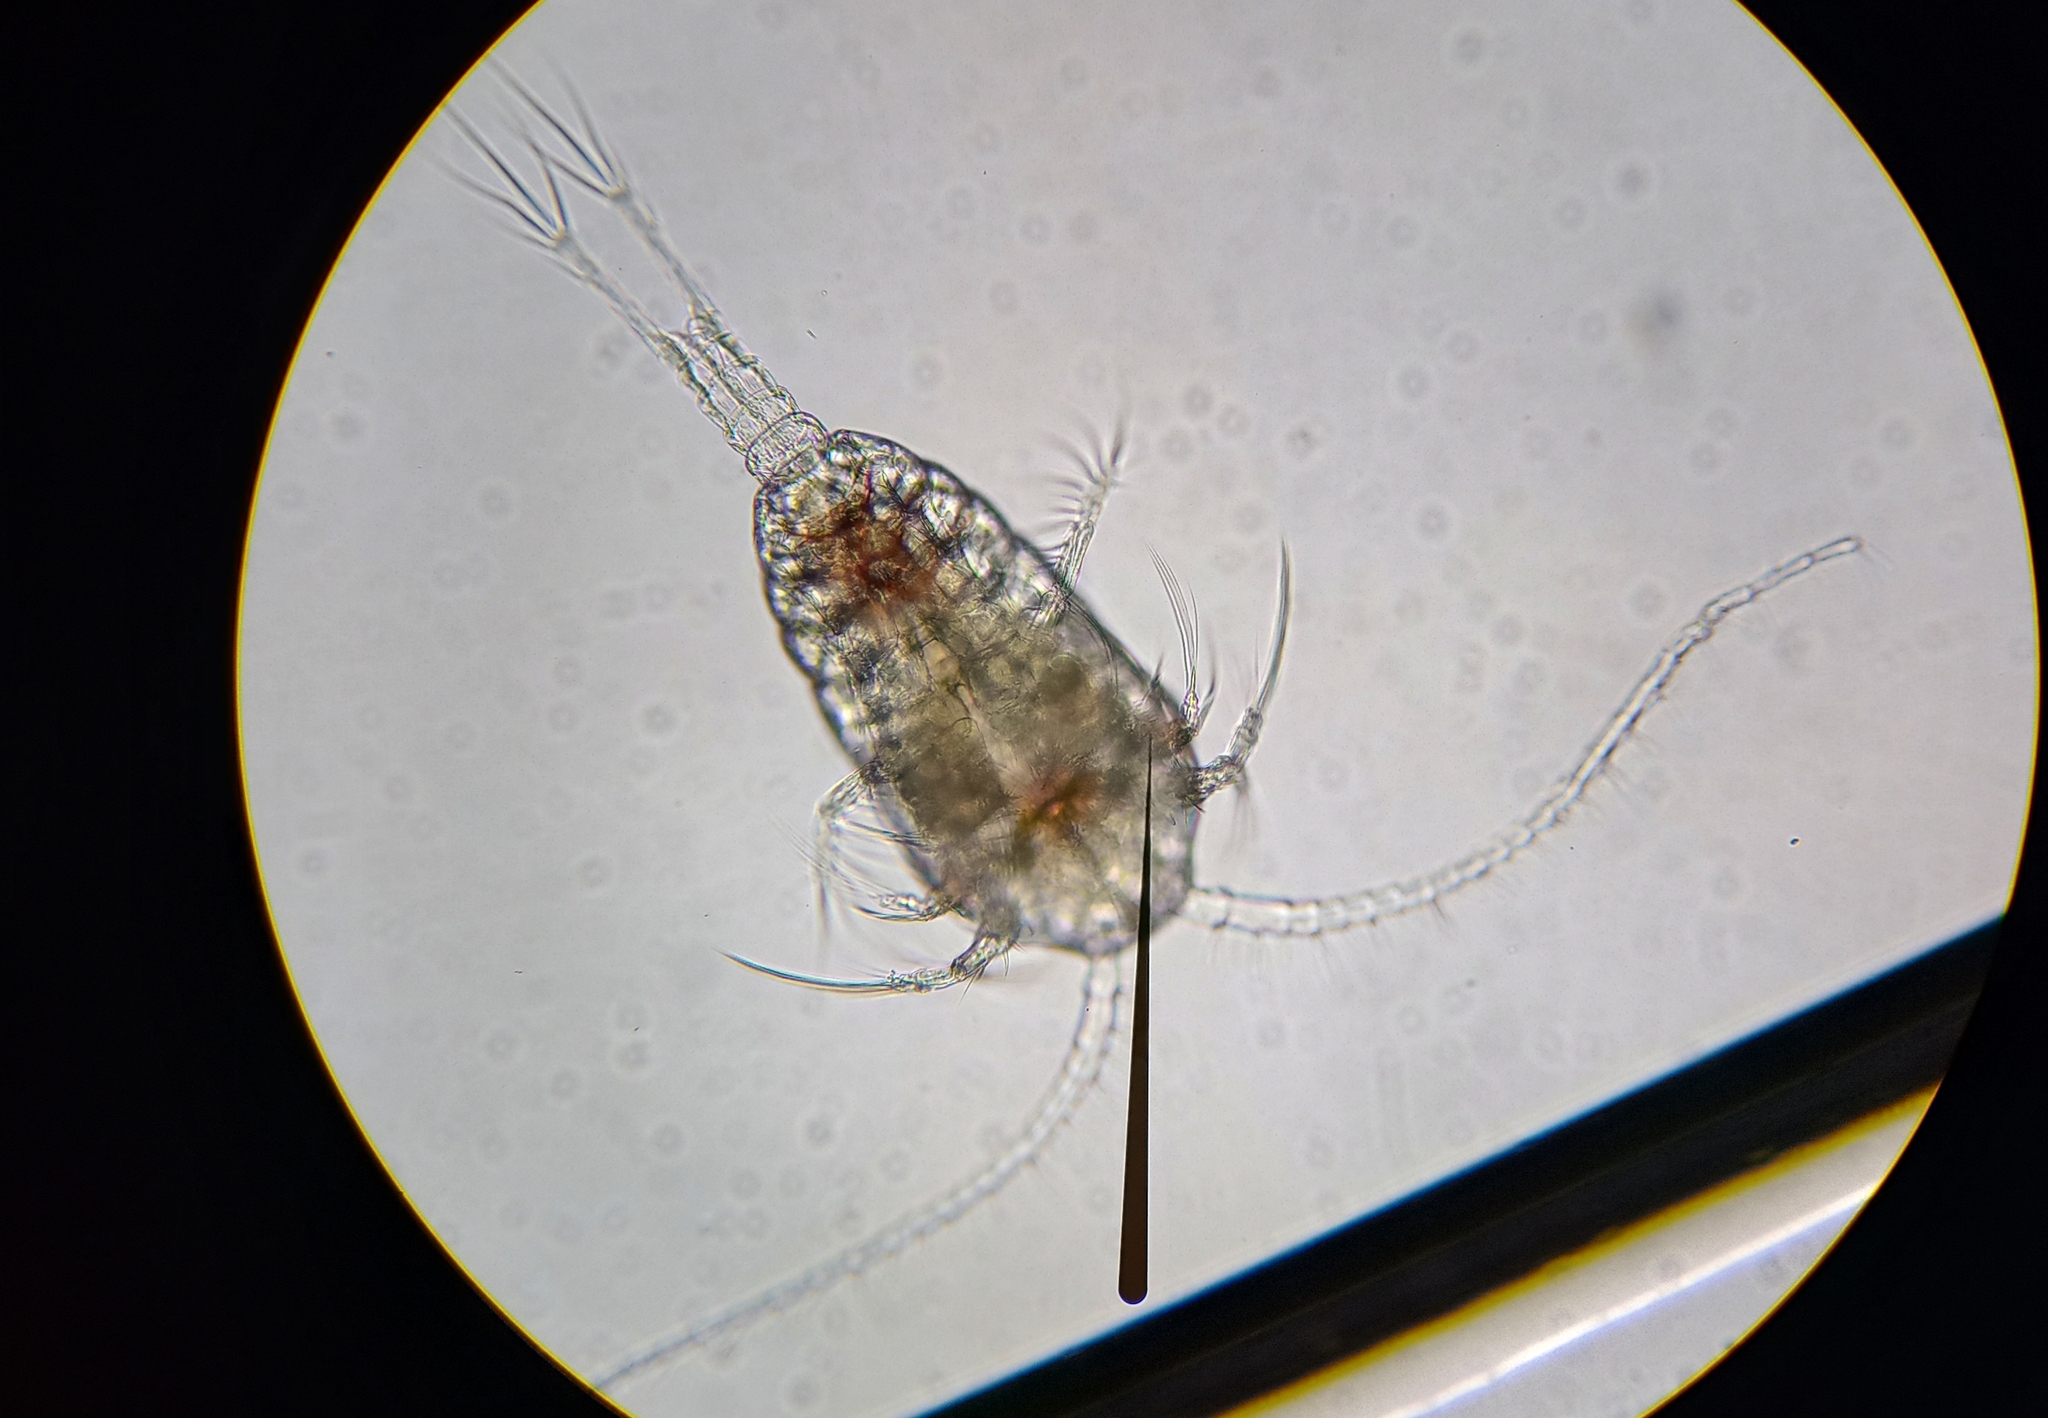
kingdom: Animalia
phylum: Arthropoda
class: Copepoda
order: Calanoida
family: Temoridae
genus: Temora
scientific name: Temora turbinata
